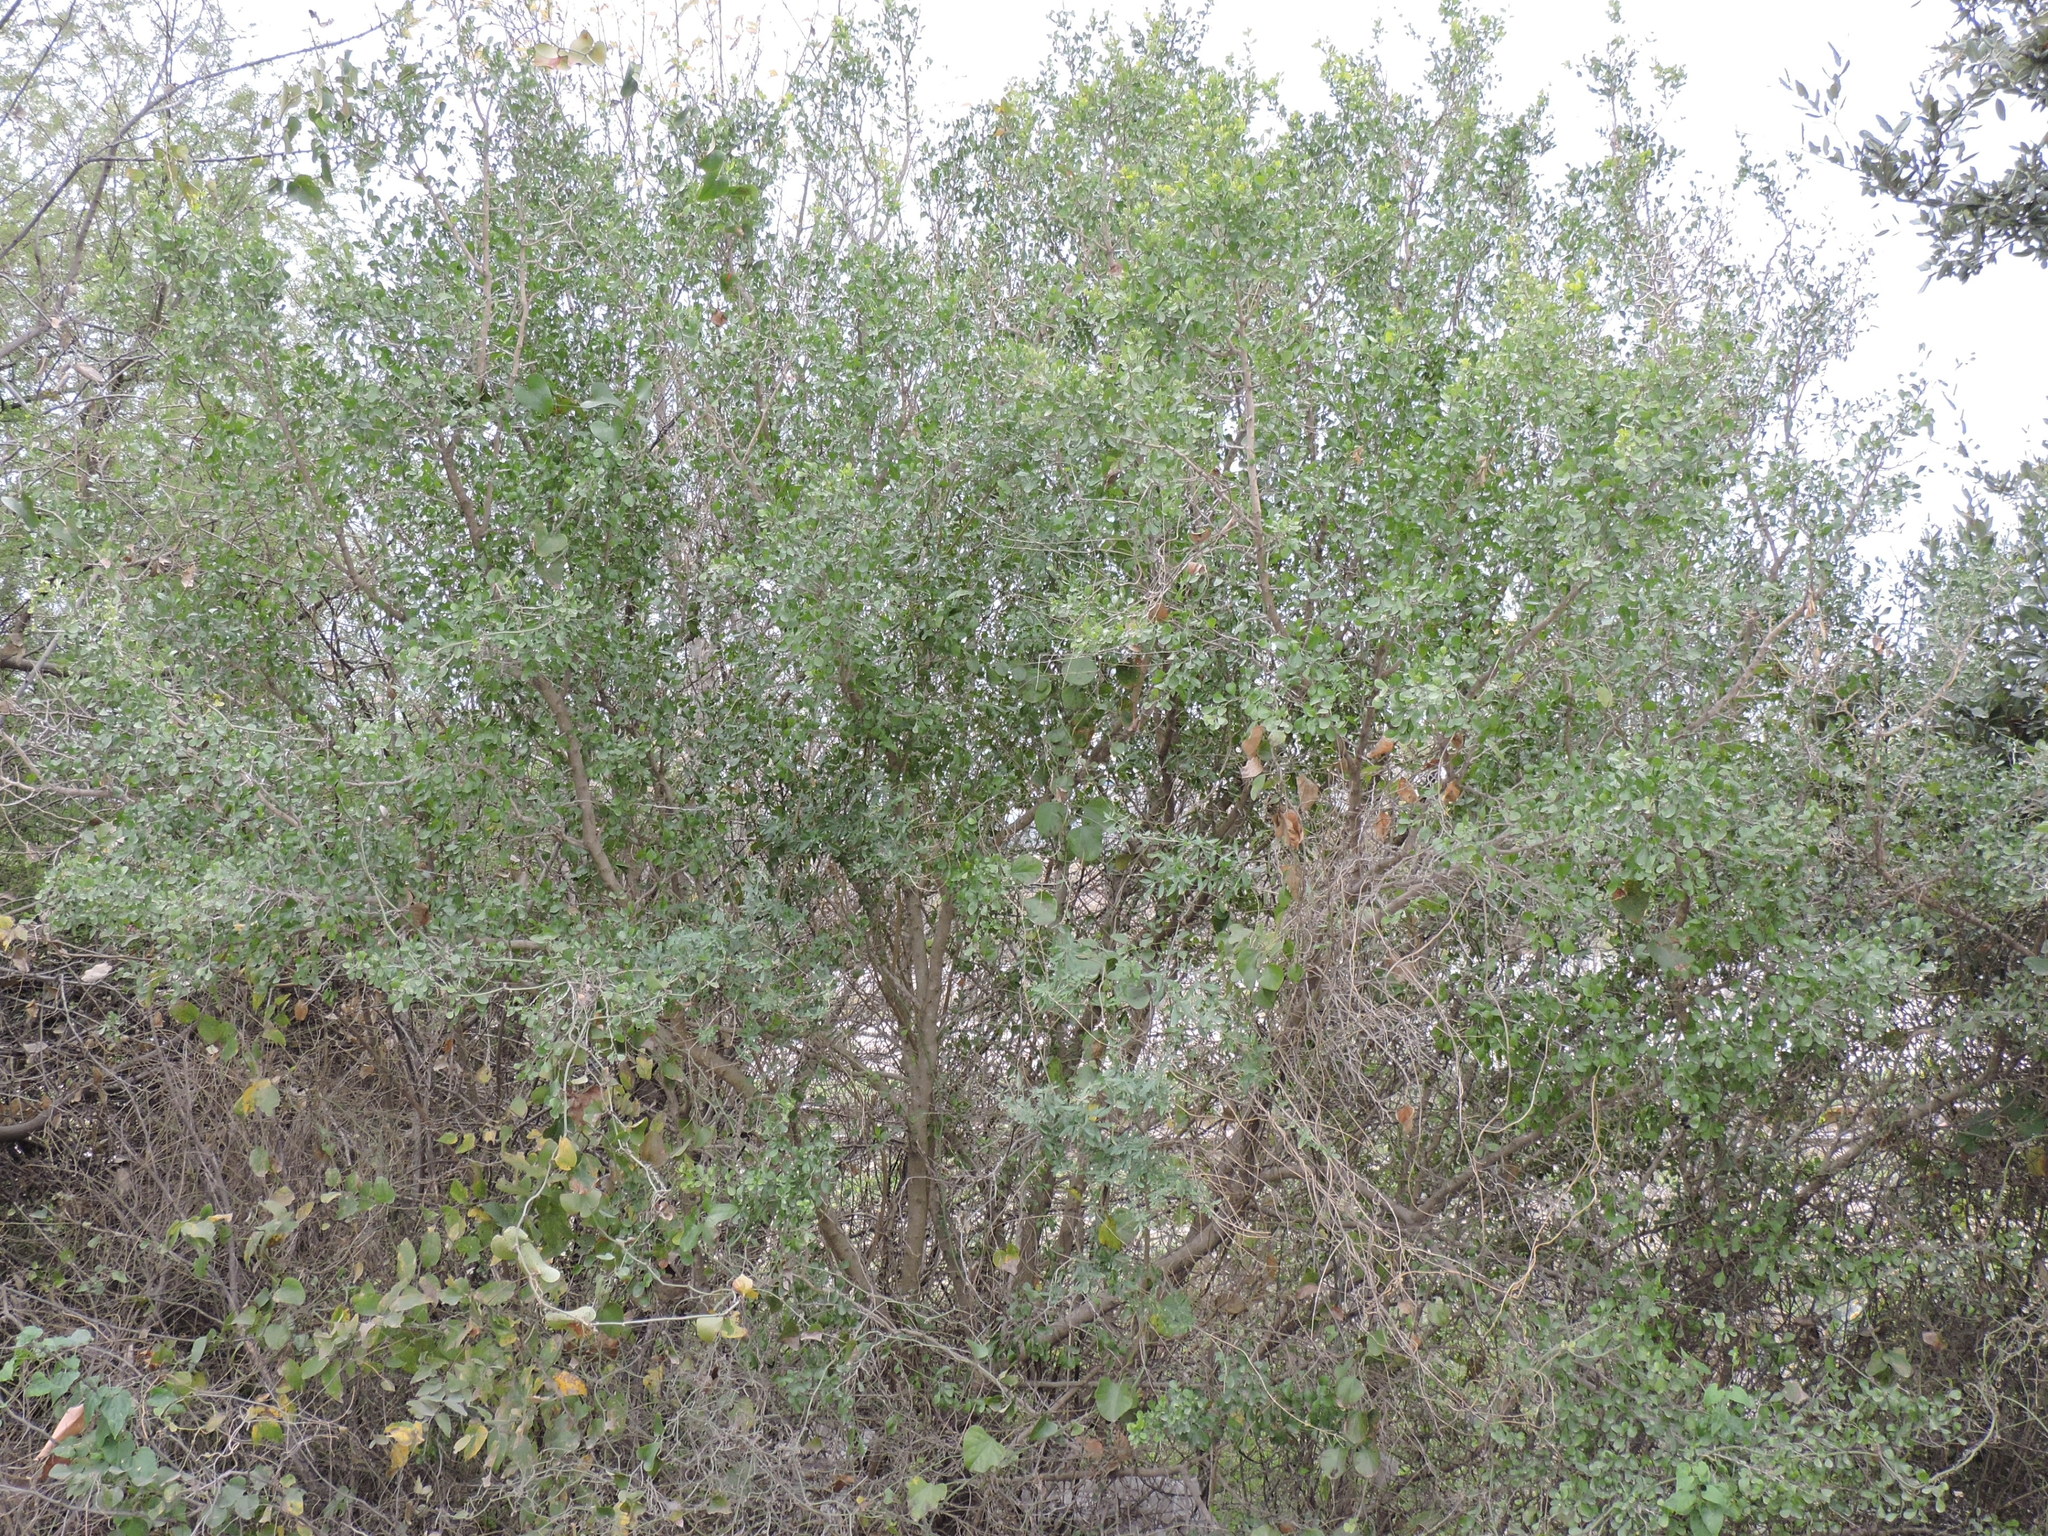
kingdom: Plantae
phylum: Tracheophyta
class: Magnoliopsida
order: Rosales
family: Rhamnaceae
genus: Condalia
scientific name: Condalia hookeri
